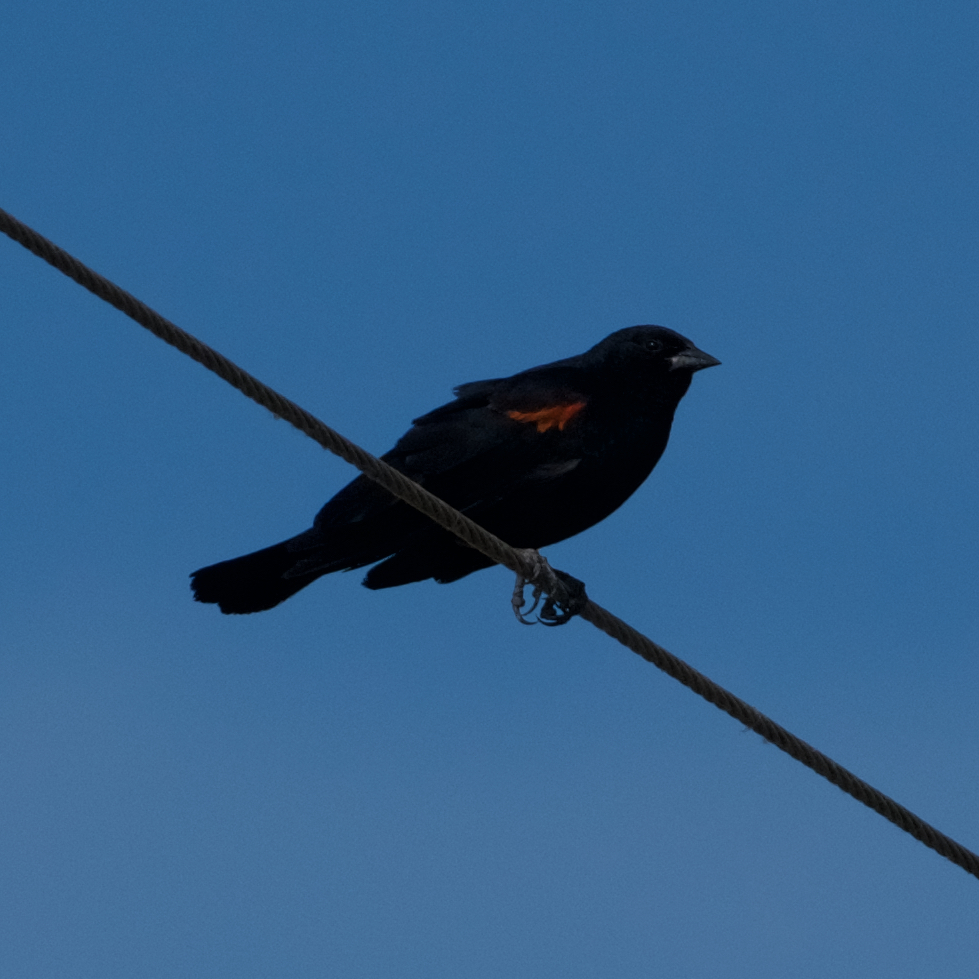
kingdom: Animalia
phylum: Chordata
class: Aves
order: Passeriformes
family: Icteridae
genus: Agelaius
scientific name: Agelaius phoeniceus
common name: Red-winged blackbird
